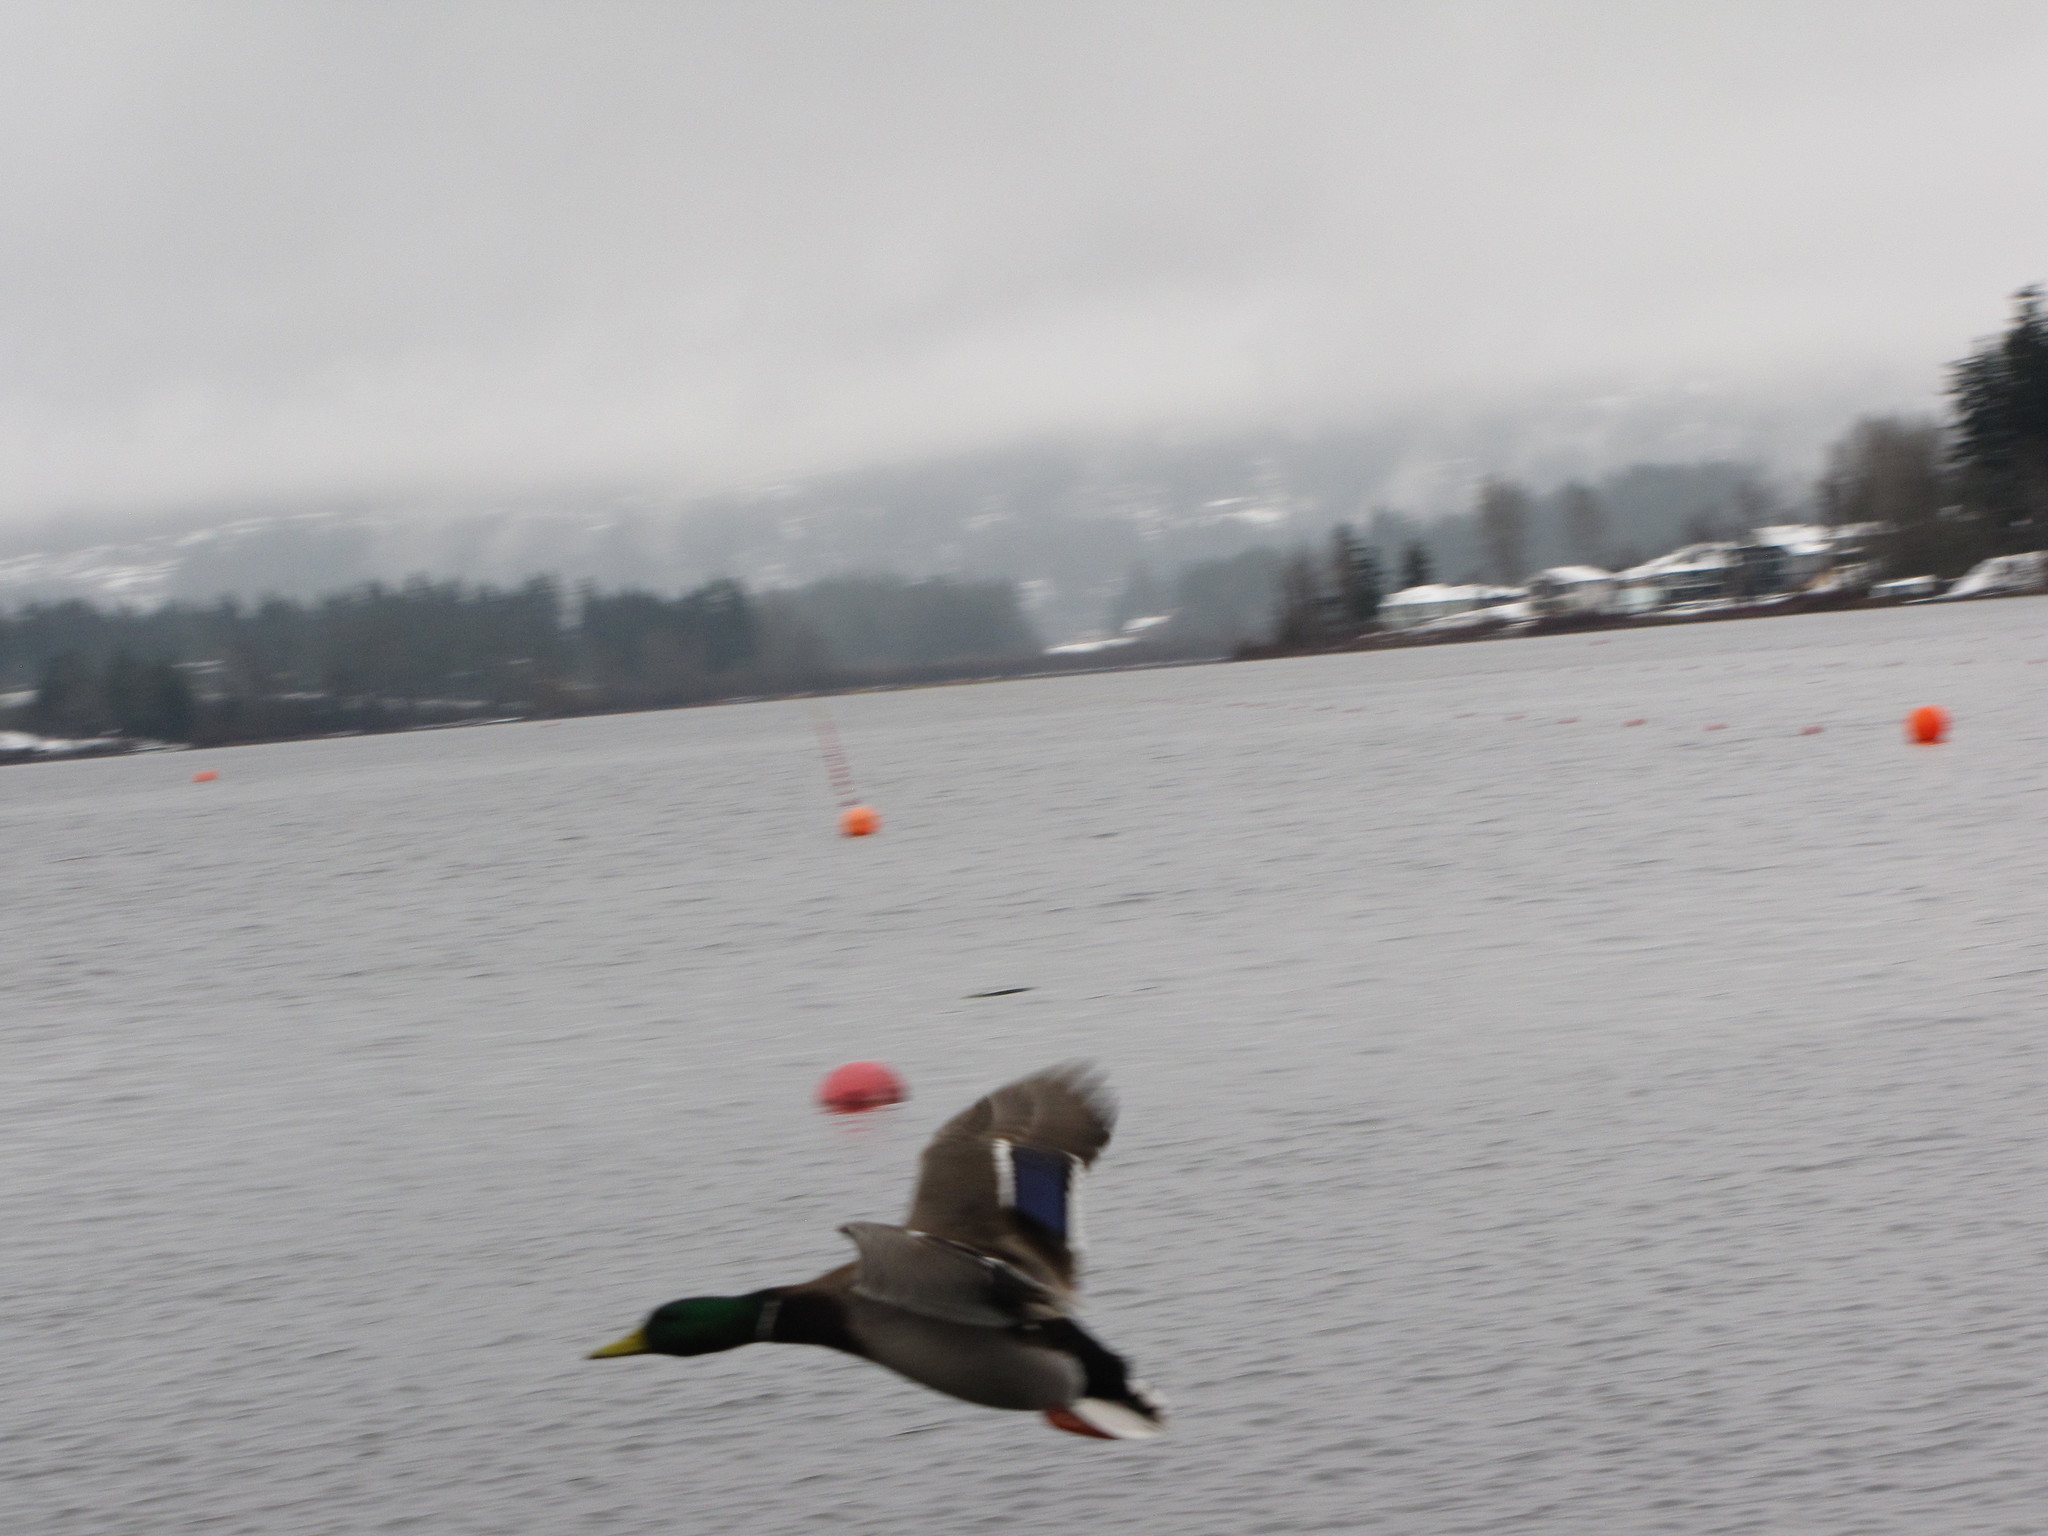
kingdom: Animalia
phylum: Chordata
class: Aves
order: Anseriformes
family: Anatidae
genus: Anas
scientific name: Anas platyrhynchos
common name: Mallard
